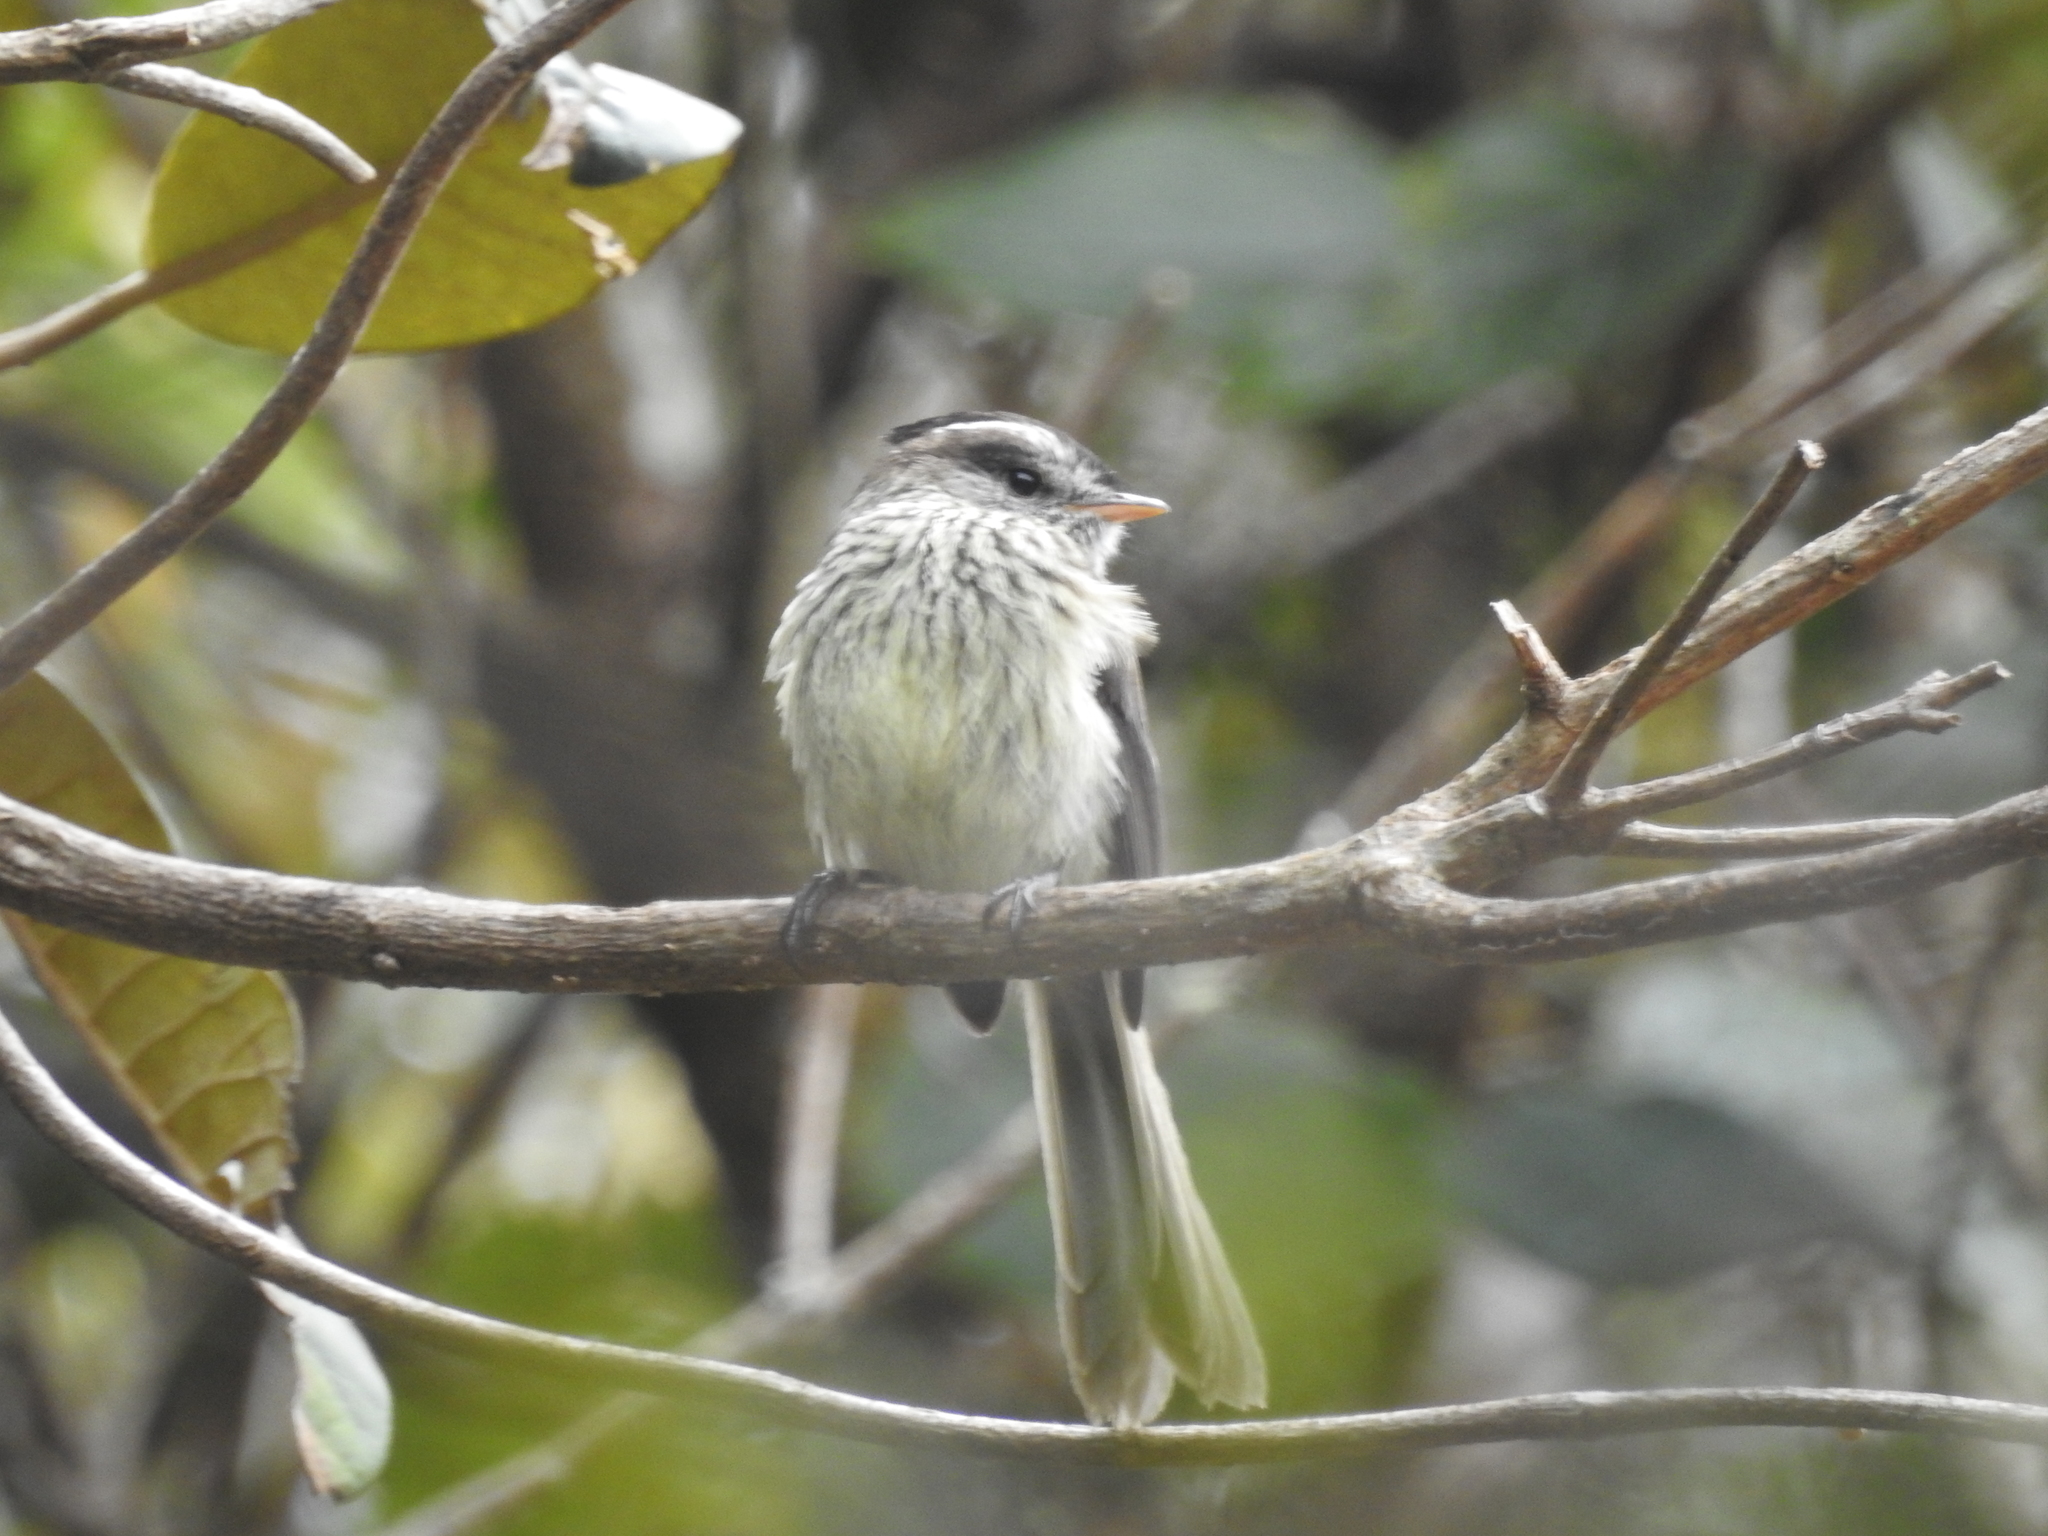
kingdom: Animalia
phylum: Chordata
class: Aves
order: Passeriformes
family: Tyrannidae
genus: Anairetes
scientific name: Anairetes agilis
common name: Agile tit-tyrant
